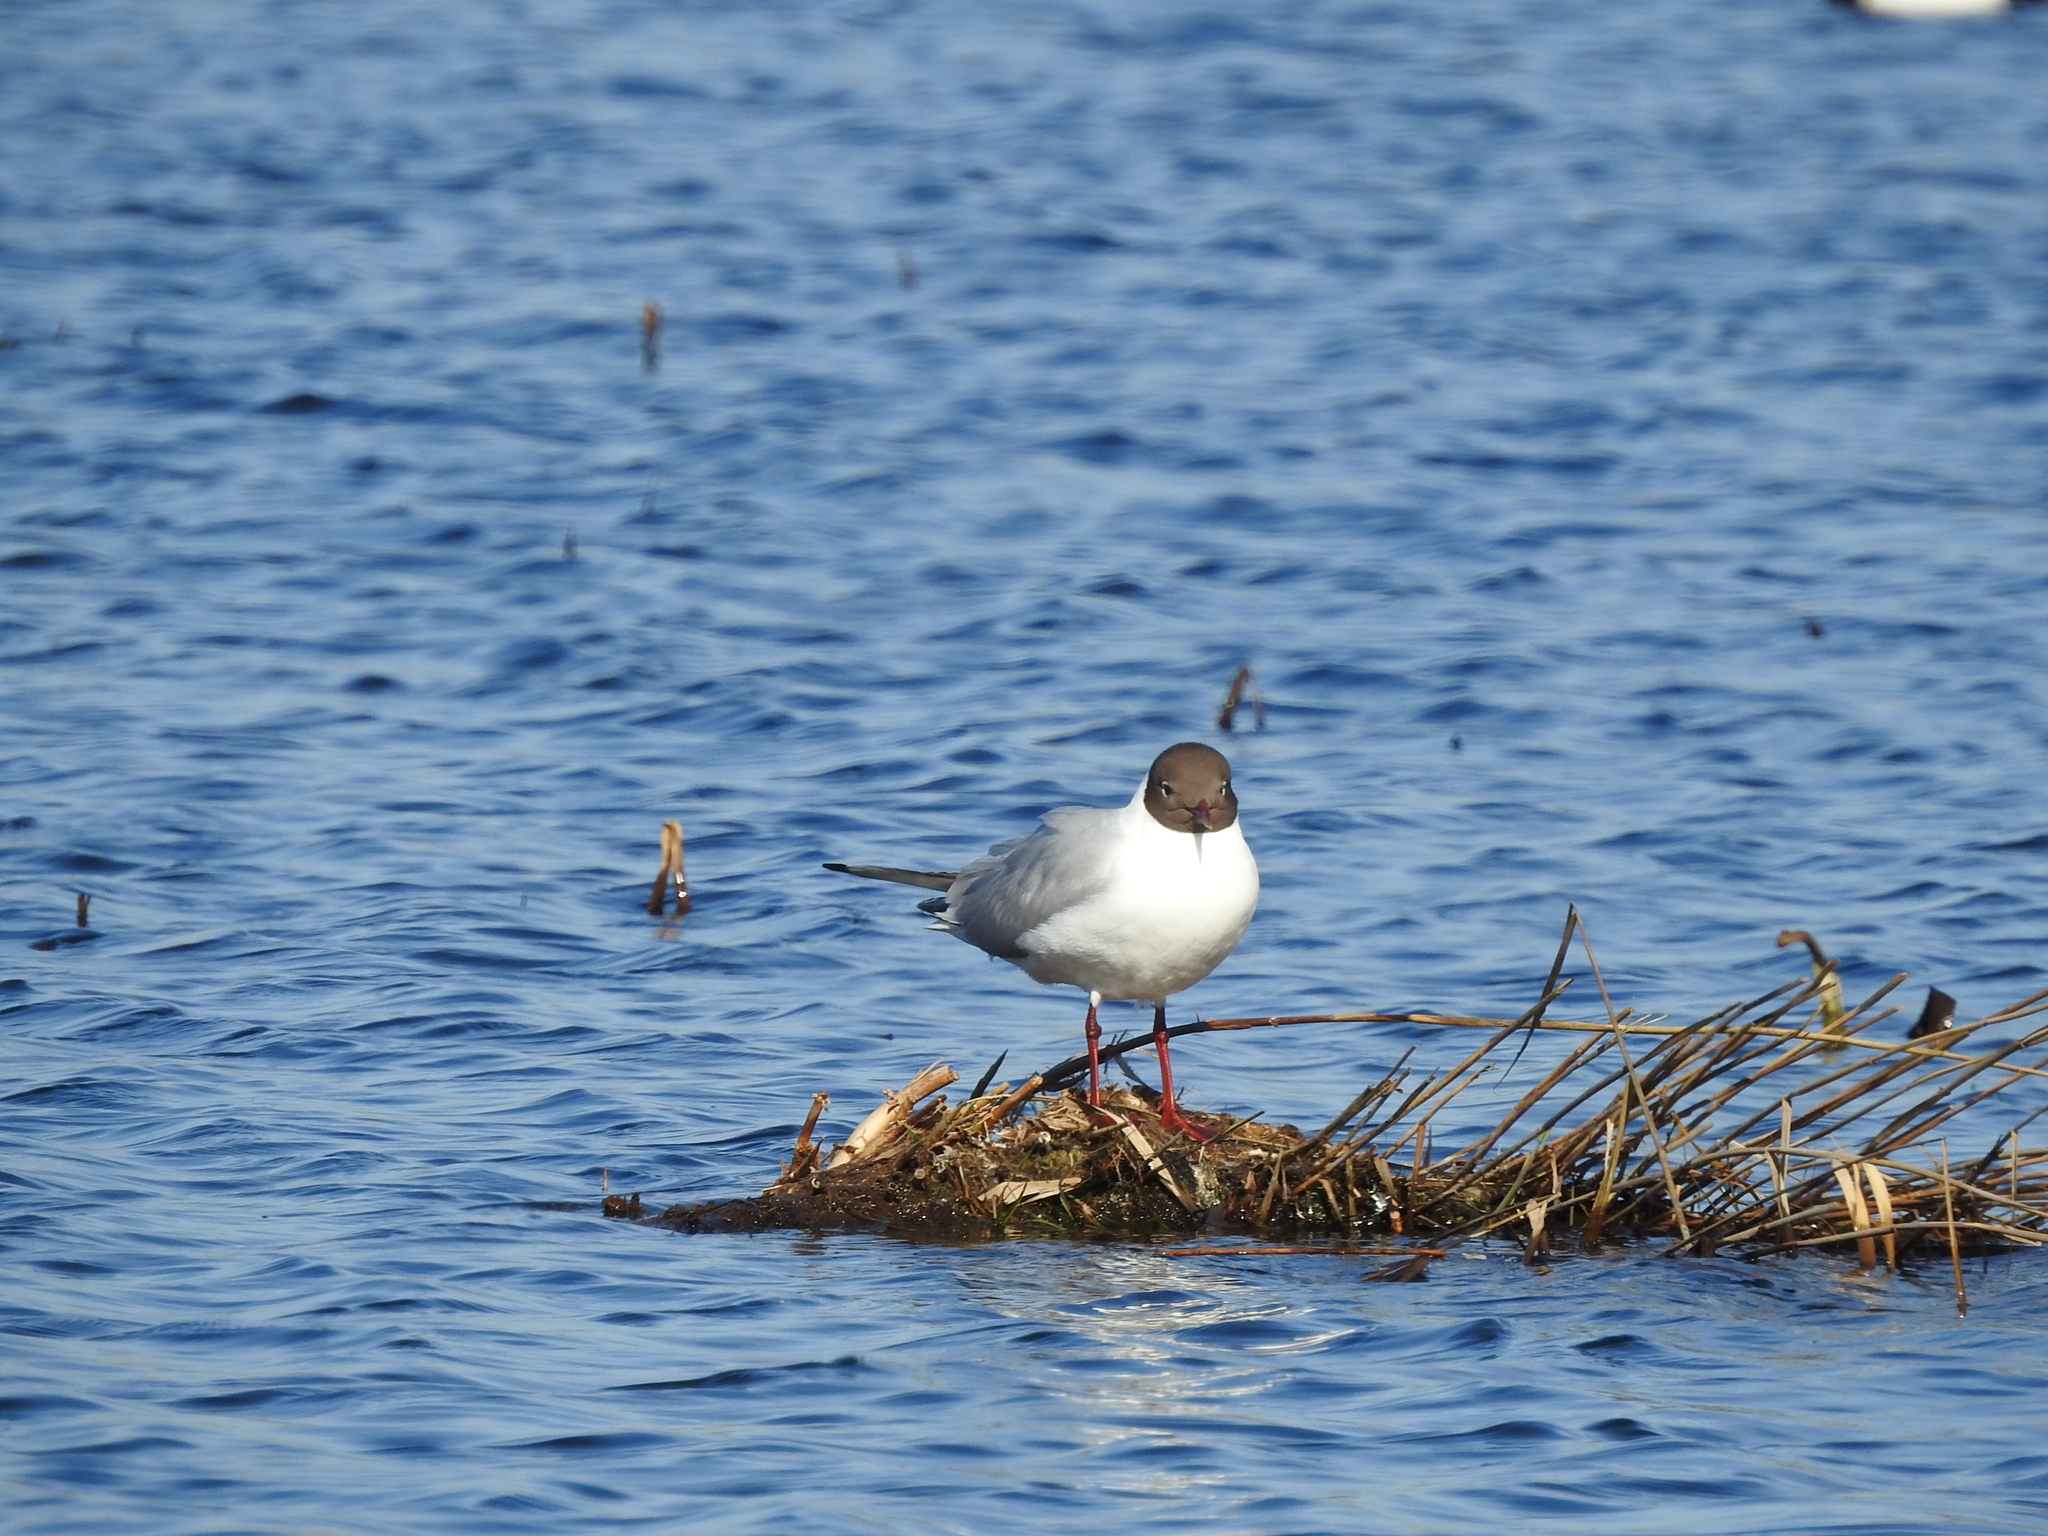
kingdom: Animalia
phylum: Chordata
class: Aves
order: Charadriiformes
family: Laridae
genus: Chroicocephalus
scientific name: Chroicocephalus ridibundus
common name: Black-headed gull
